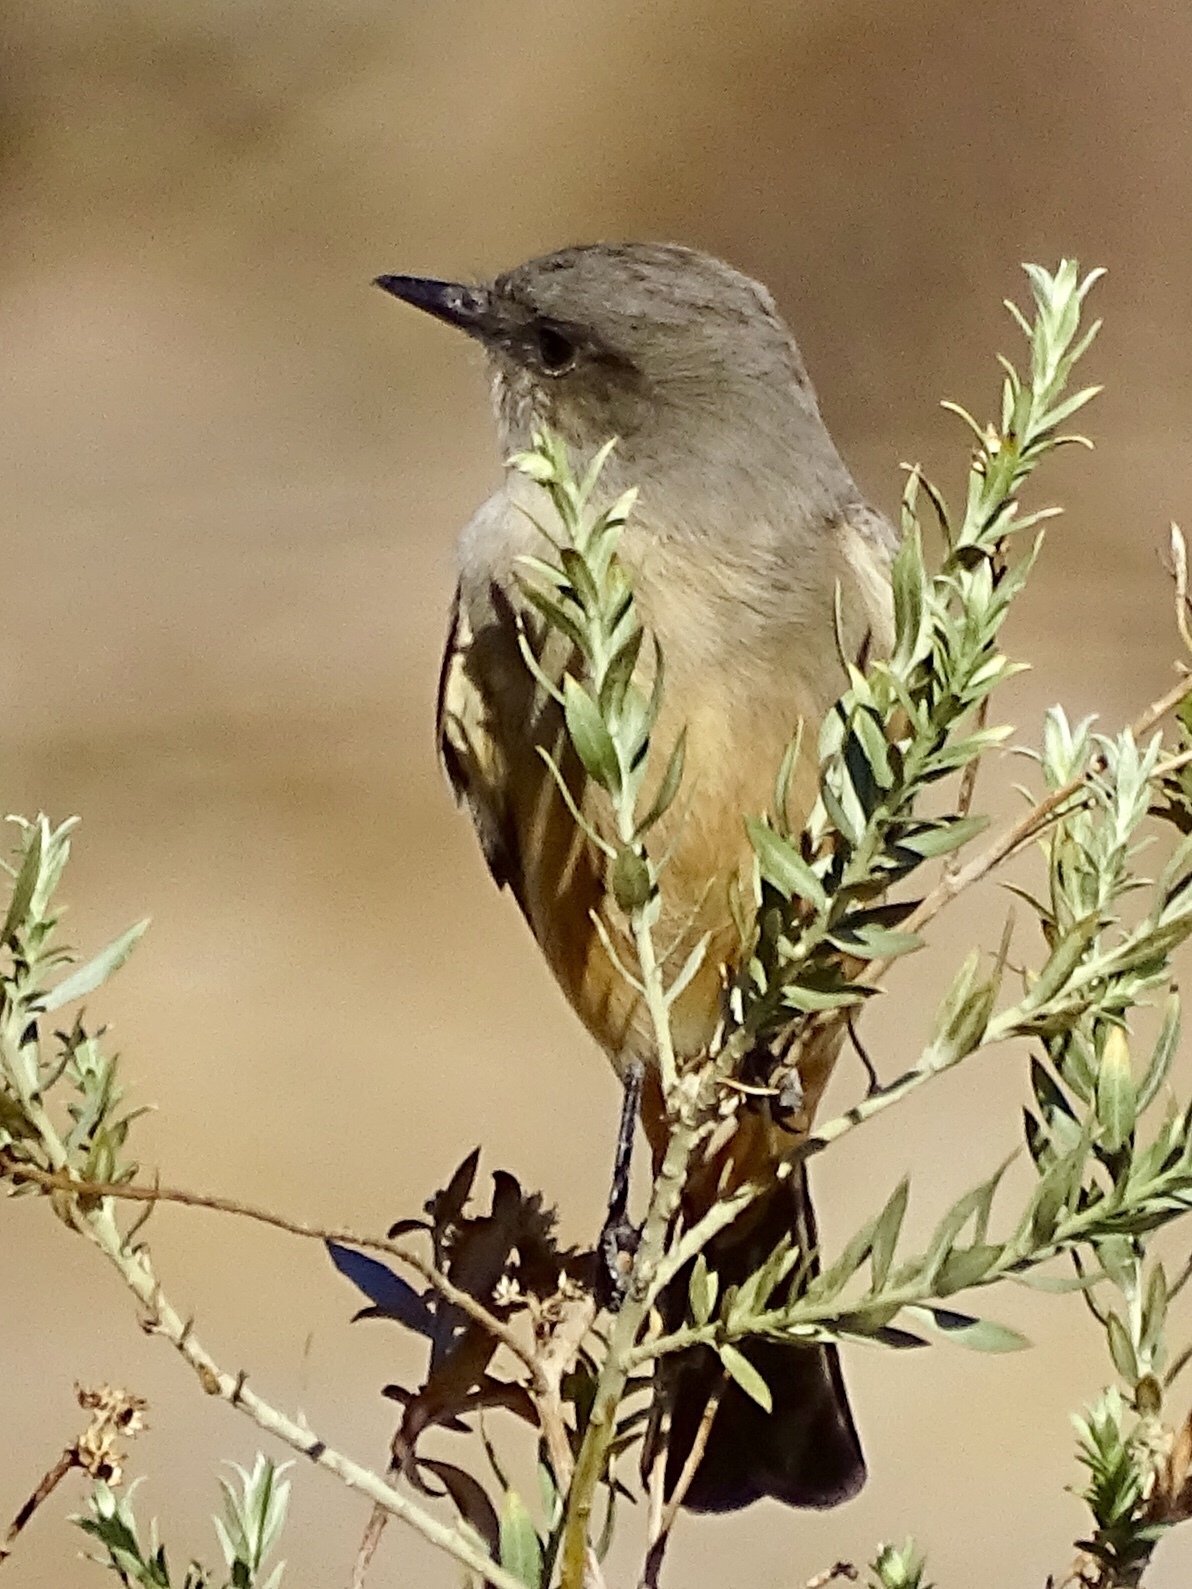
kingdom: Animalia
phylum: Chordata
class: Aves
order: Passeriformes
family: Tyrannidae
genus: Sayornis
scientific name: Sayornis saya
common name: Say's phoebe
